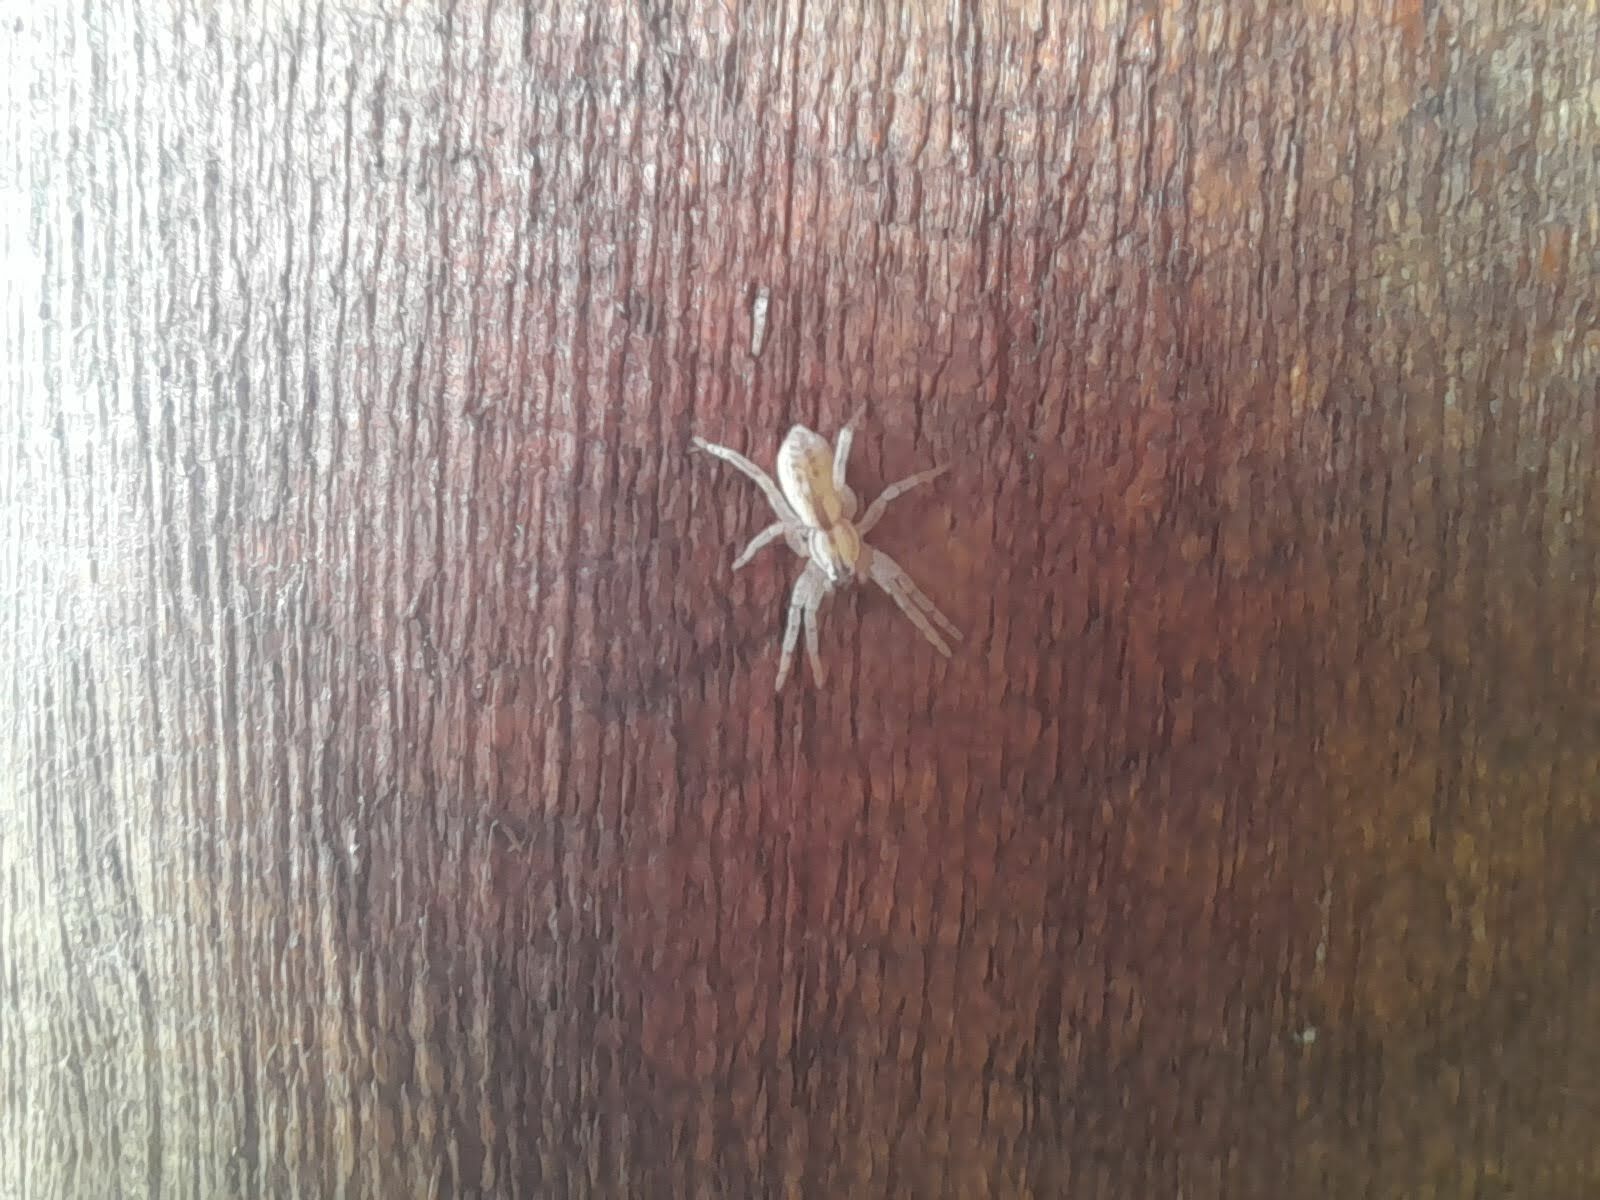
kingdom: Animalia
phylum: Arthropoda
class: Arachnida
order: Araneae
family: Anyphaenidae
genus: Arachosia
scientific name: Arachosia praesignis
